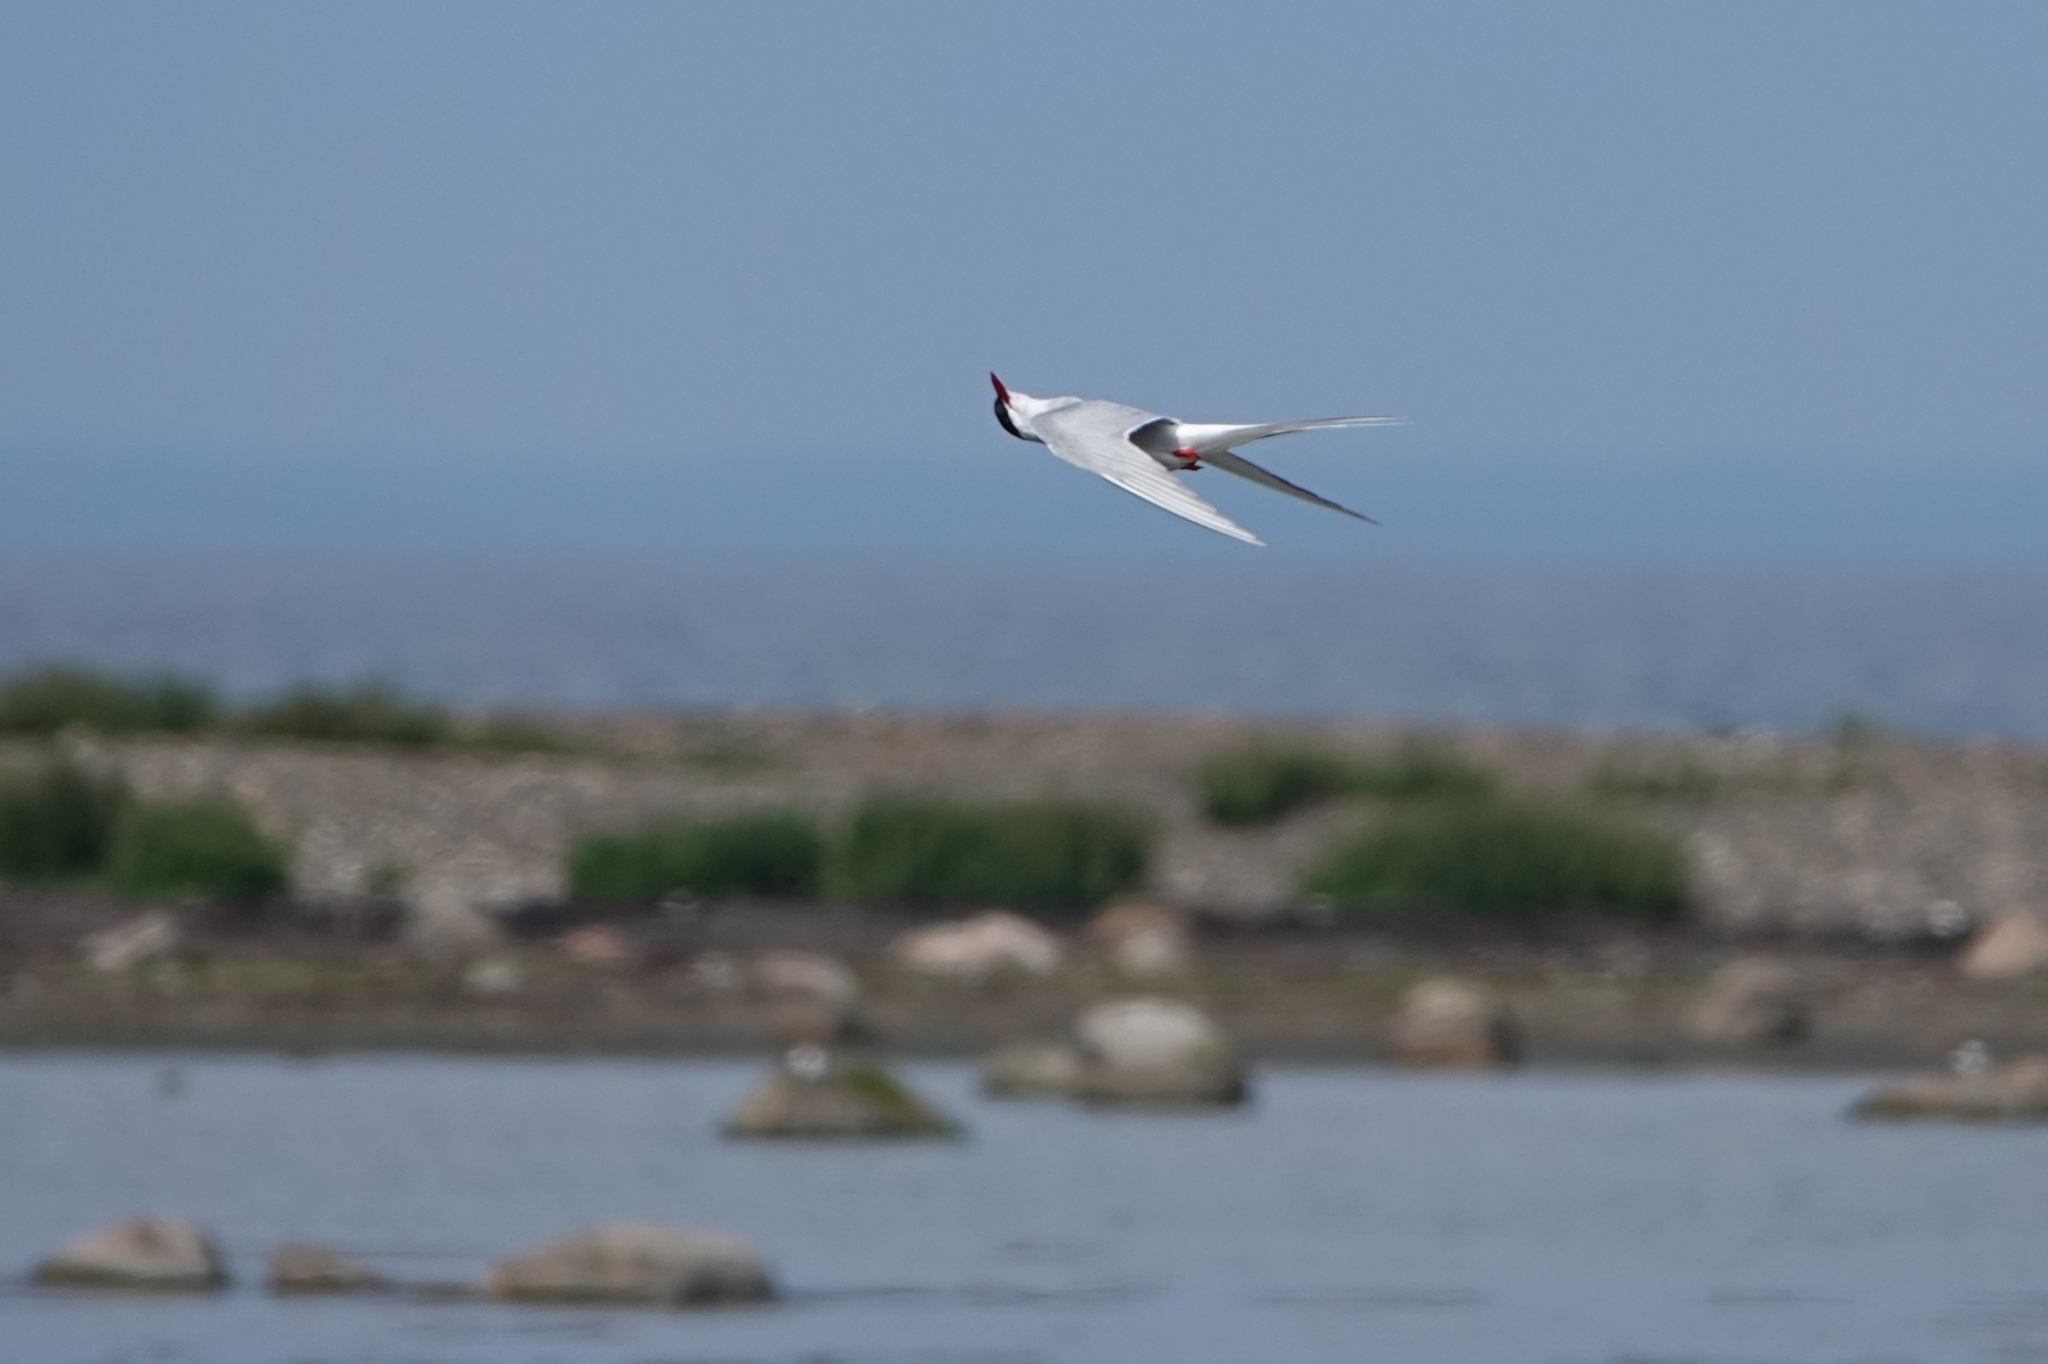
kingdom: Animalia
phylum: Chordata
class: Aves
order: Charadriiformes
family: Laridae
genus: Sterna
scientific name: Sterna paradisaea
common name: Arctic tern
